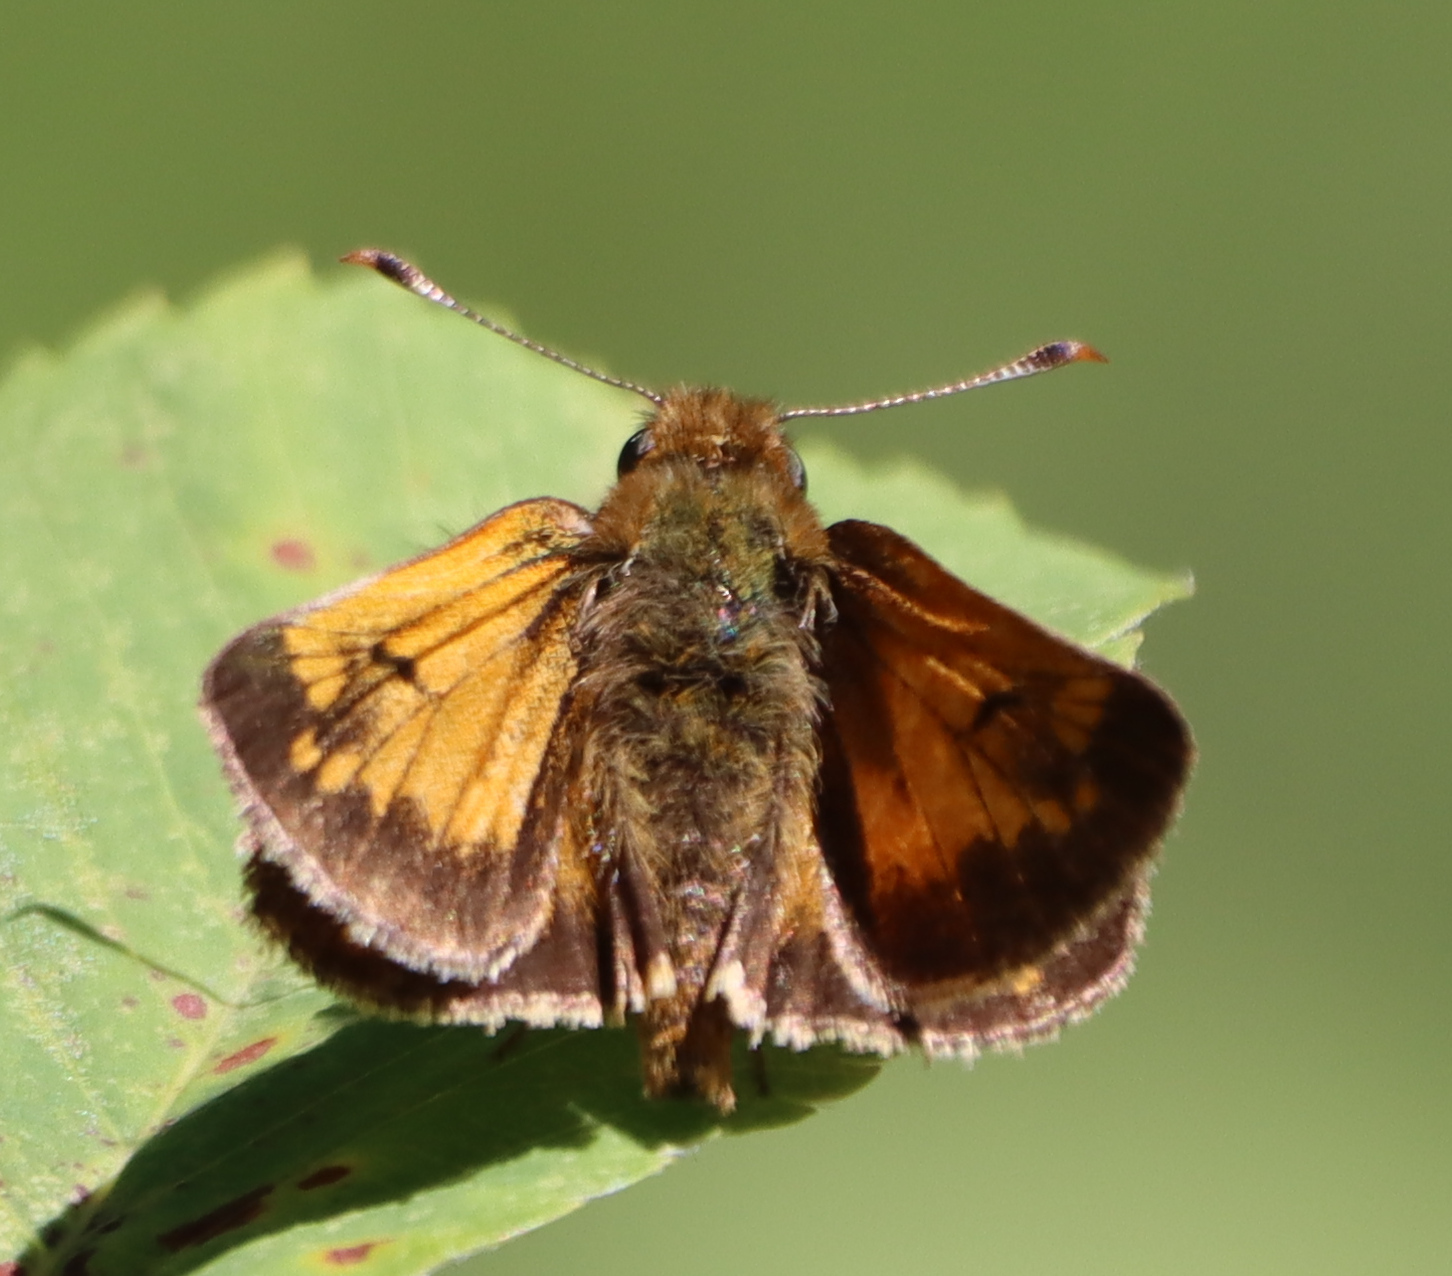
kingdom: Animalia
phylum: Arthropoda
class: Insecta
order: Lepidoptera
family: Hesperiidae
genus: Lon
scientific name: Lon hobomok
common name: Hobomok skipper
